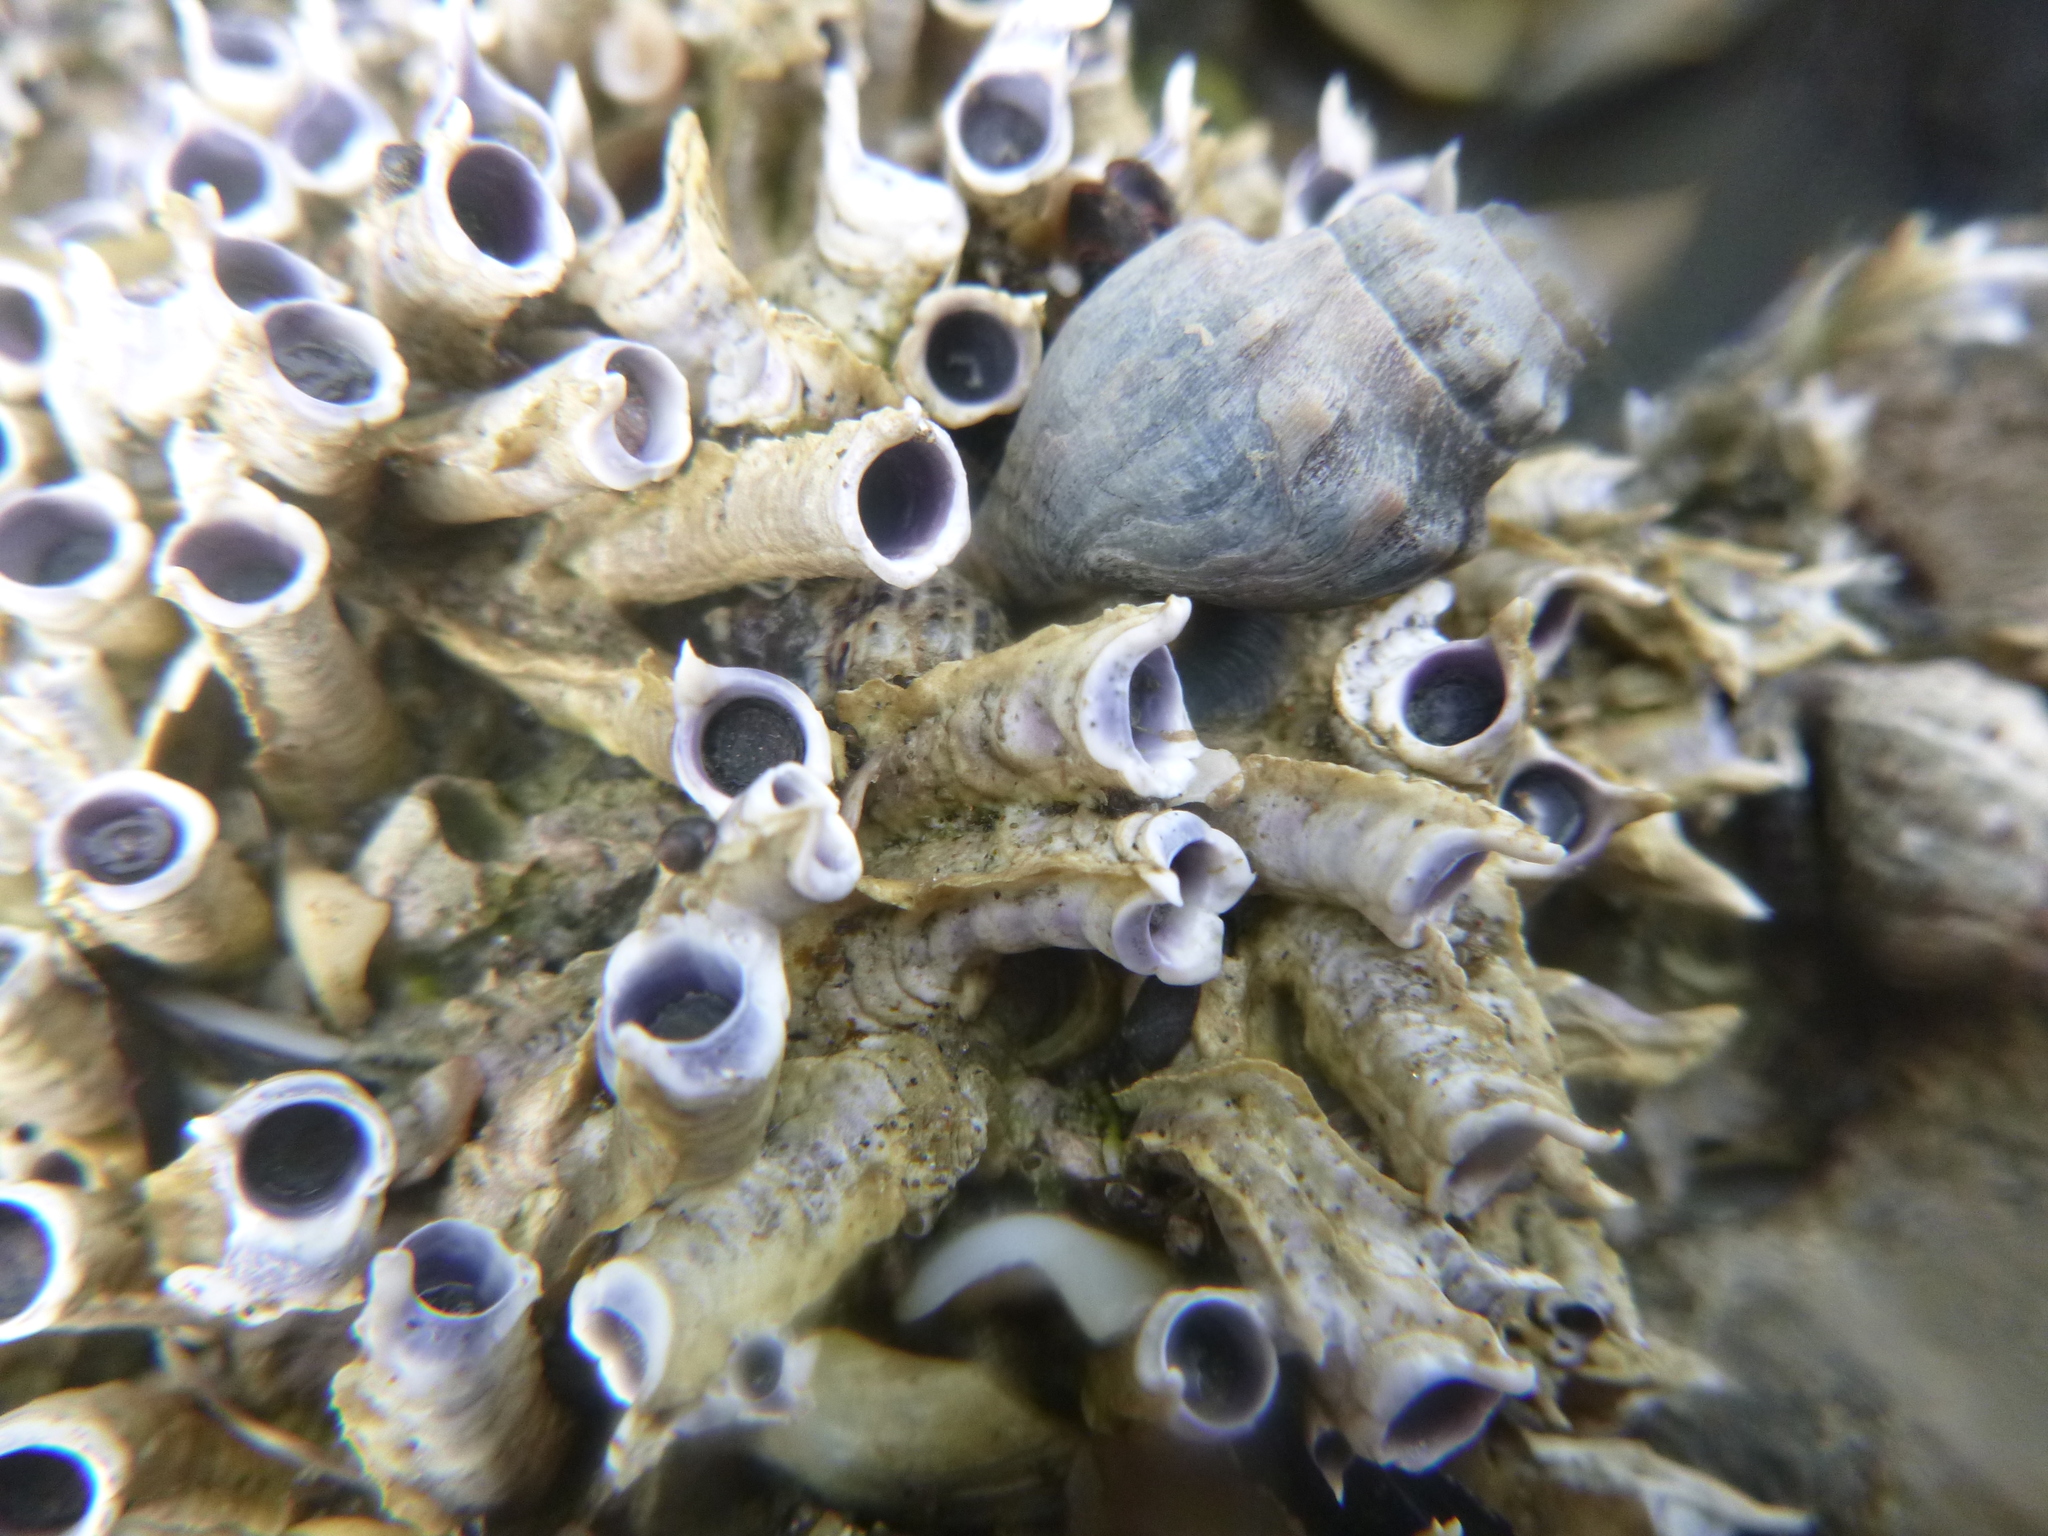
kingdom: Animalia
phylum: Annelida
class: Polychaeta
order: Sabellida
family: Serpulidae
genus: Spirobranchus
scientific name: Spirobranchus cariniferus
